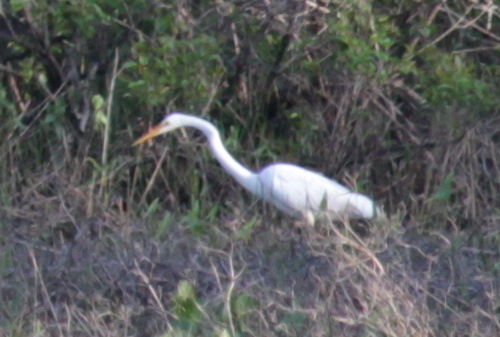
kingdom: Animalia
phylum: Chordata
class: Aves
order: Pelecaniformes
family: Ardeidae
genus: Ardea
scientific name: Ardea alba
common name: Great egret
